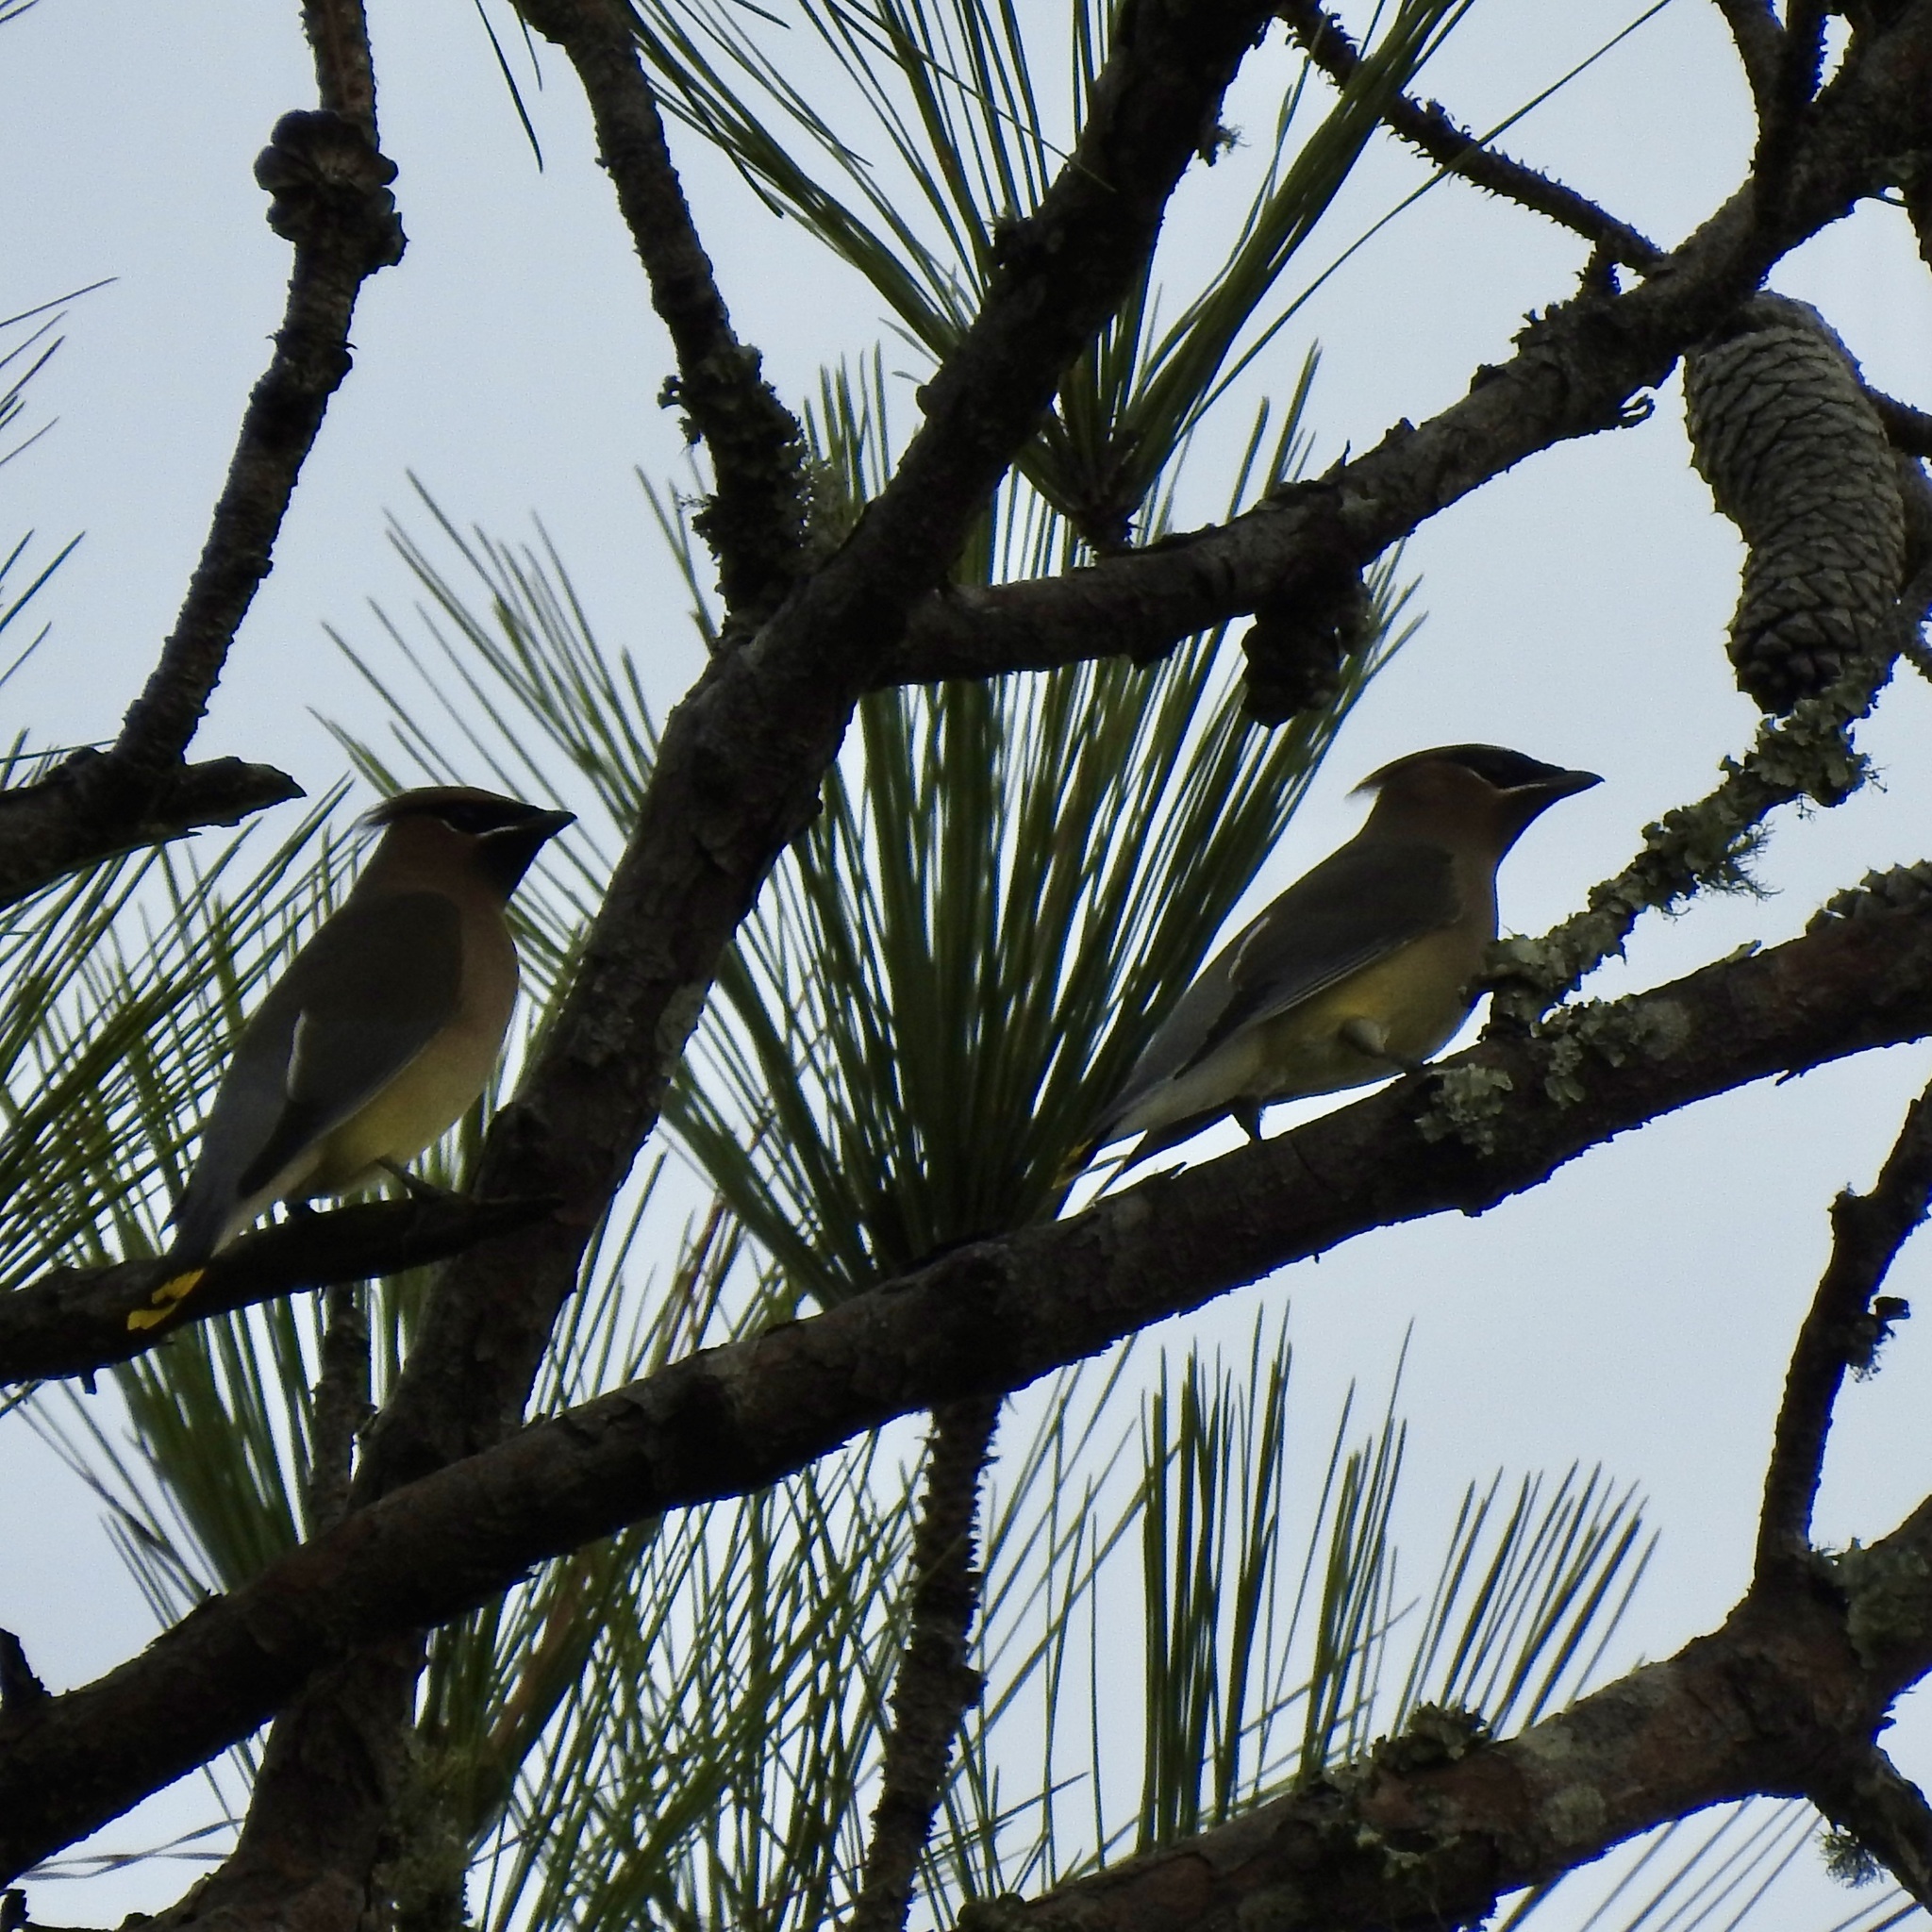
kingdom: Animalia
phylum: Chordata
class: Aves
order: Passeriformes
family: Bombycillidae
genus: Bombycilla
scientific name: Bombycilla cedrorum
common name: Cedar waxwing
